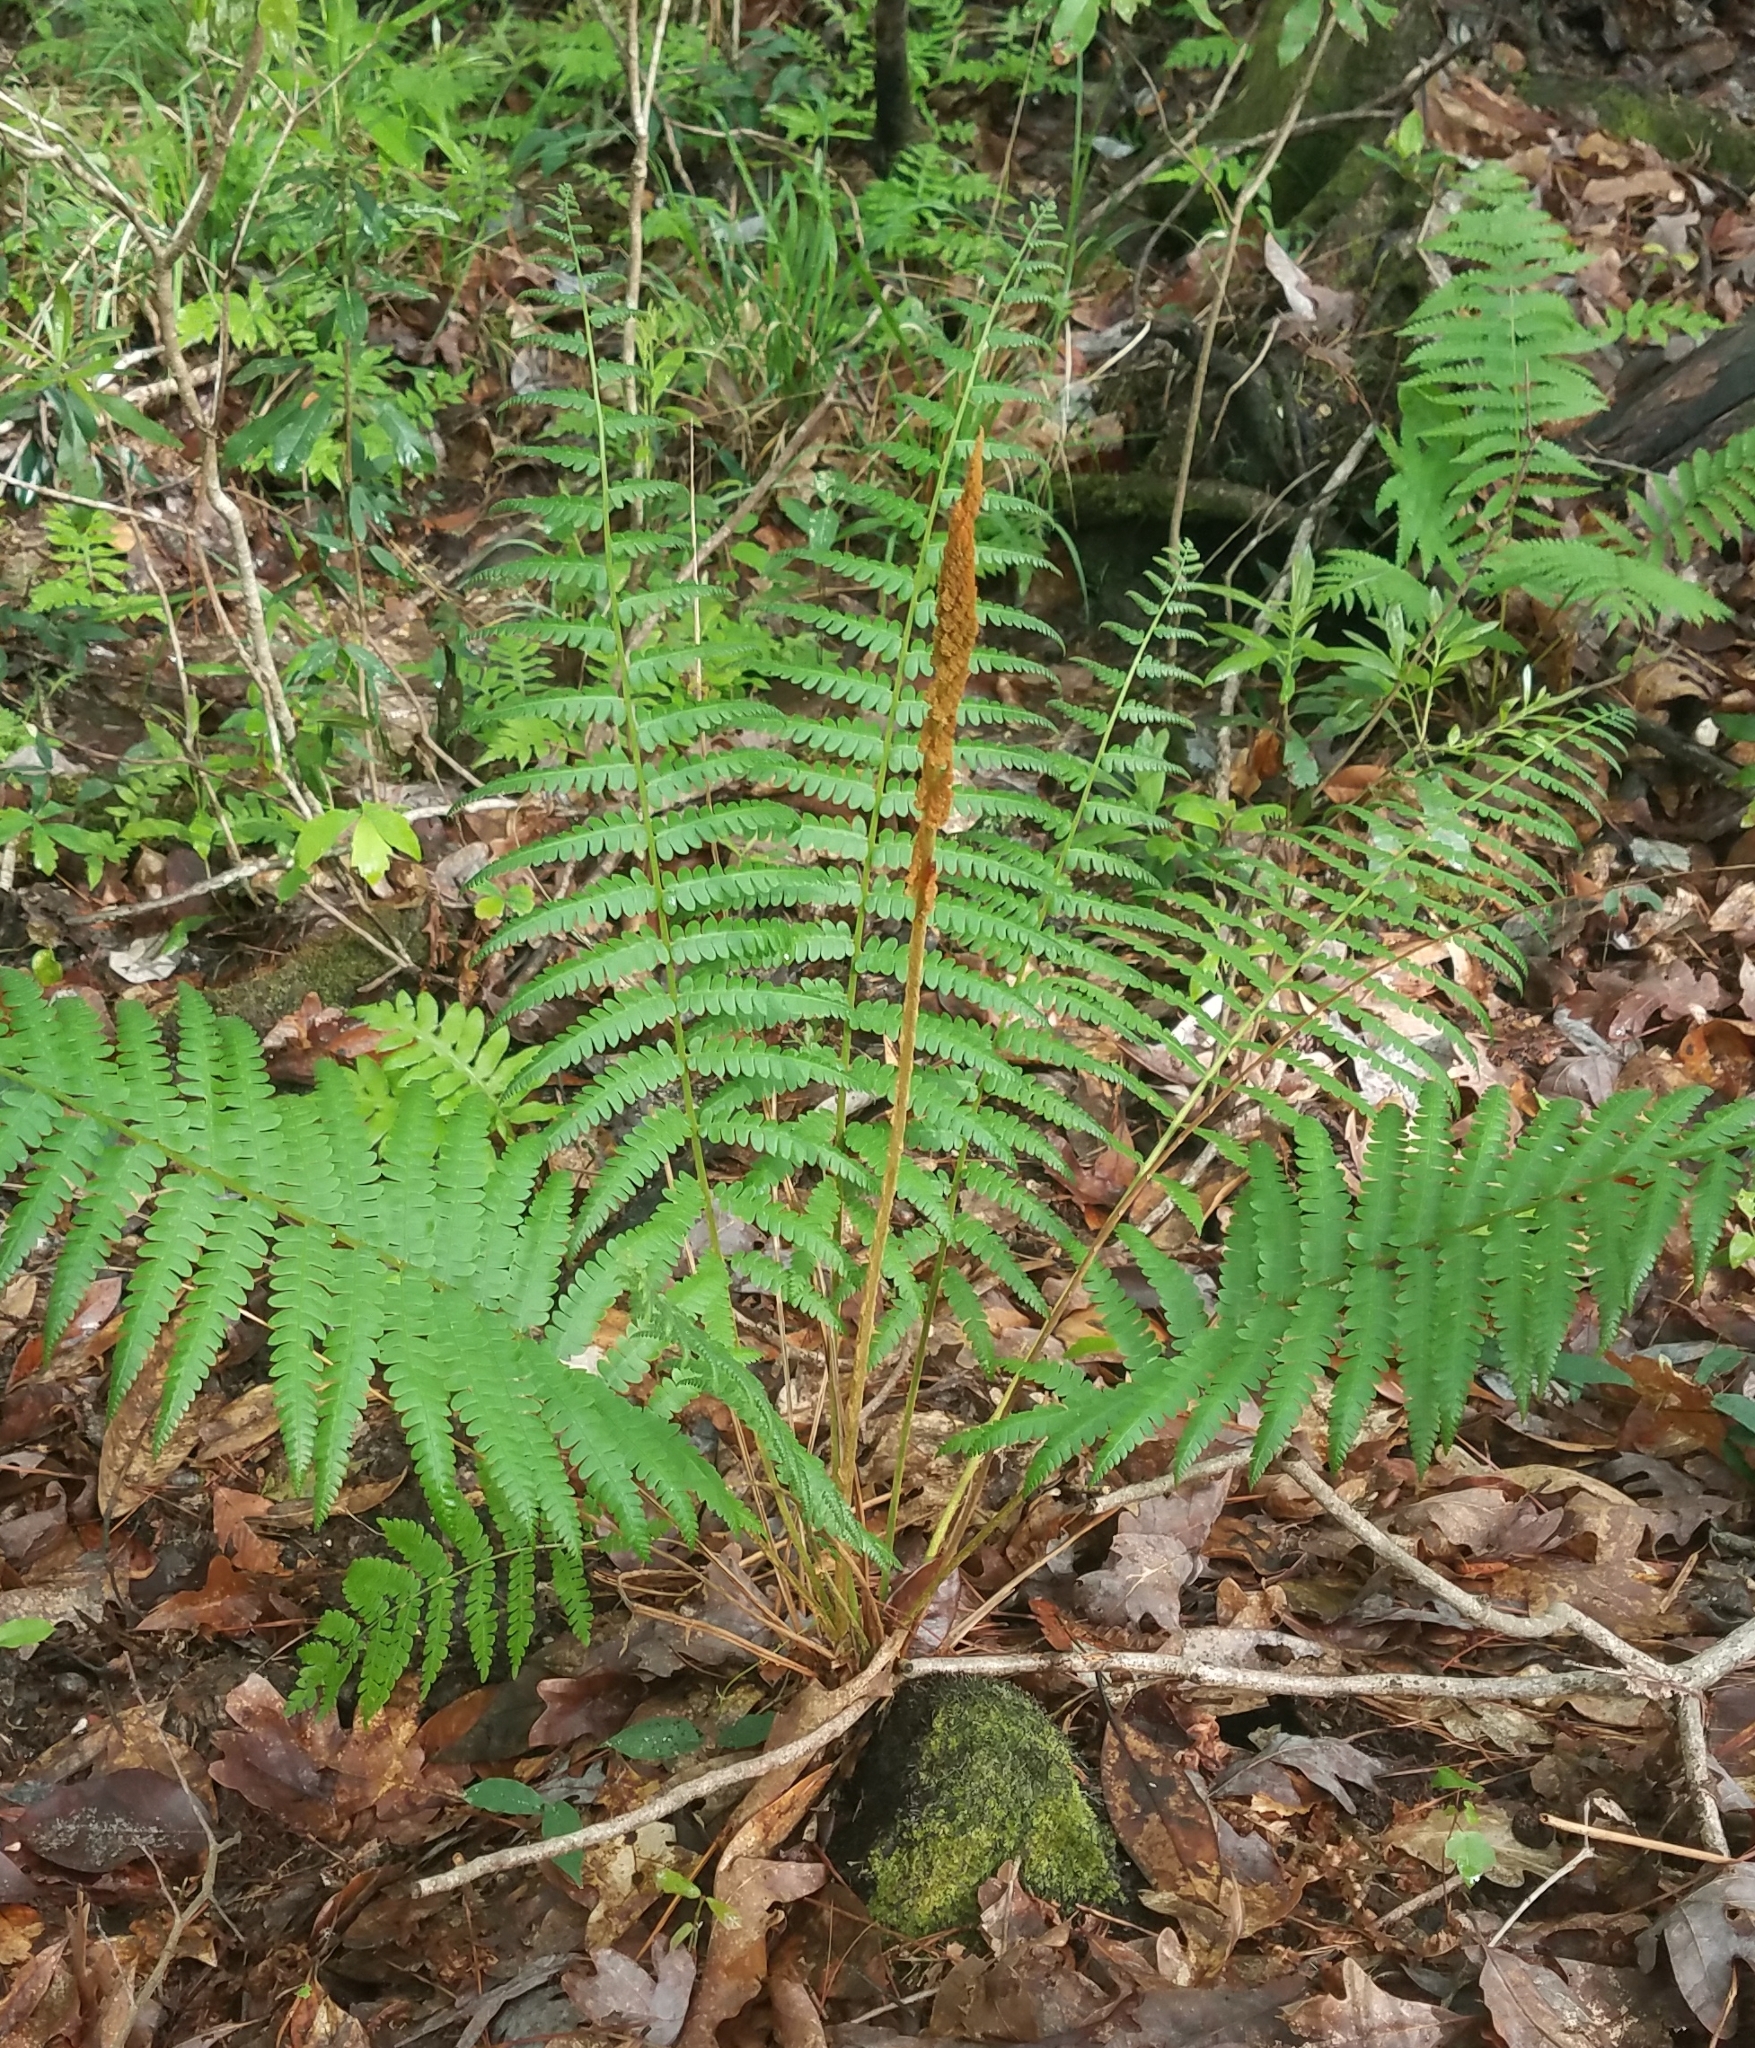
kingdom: Plantae
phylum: Tracheophyta
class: Polypodiopsida
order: Osmundales
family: Osmundaceae
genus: Osmundastrum
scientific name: Osmundastrum cinnamomeum
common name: Cinnamon fern
